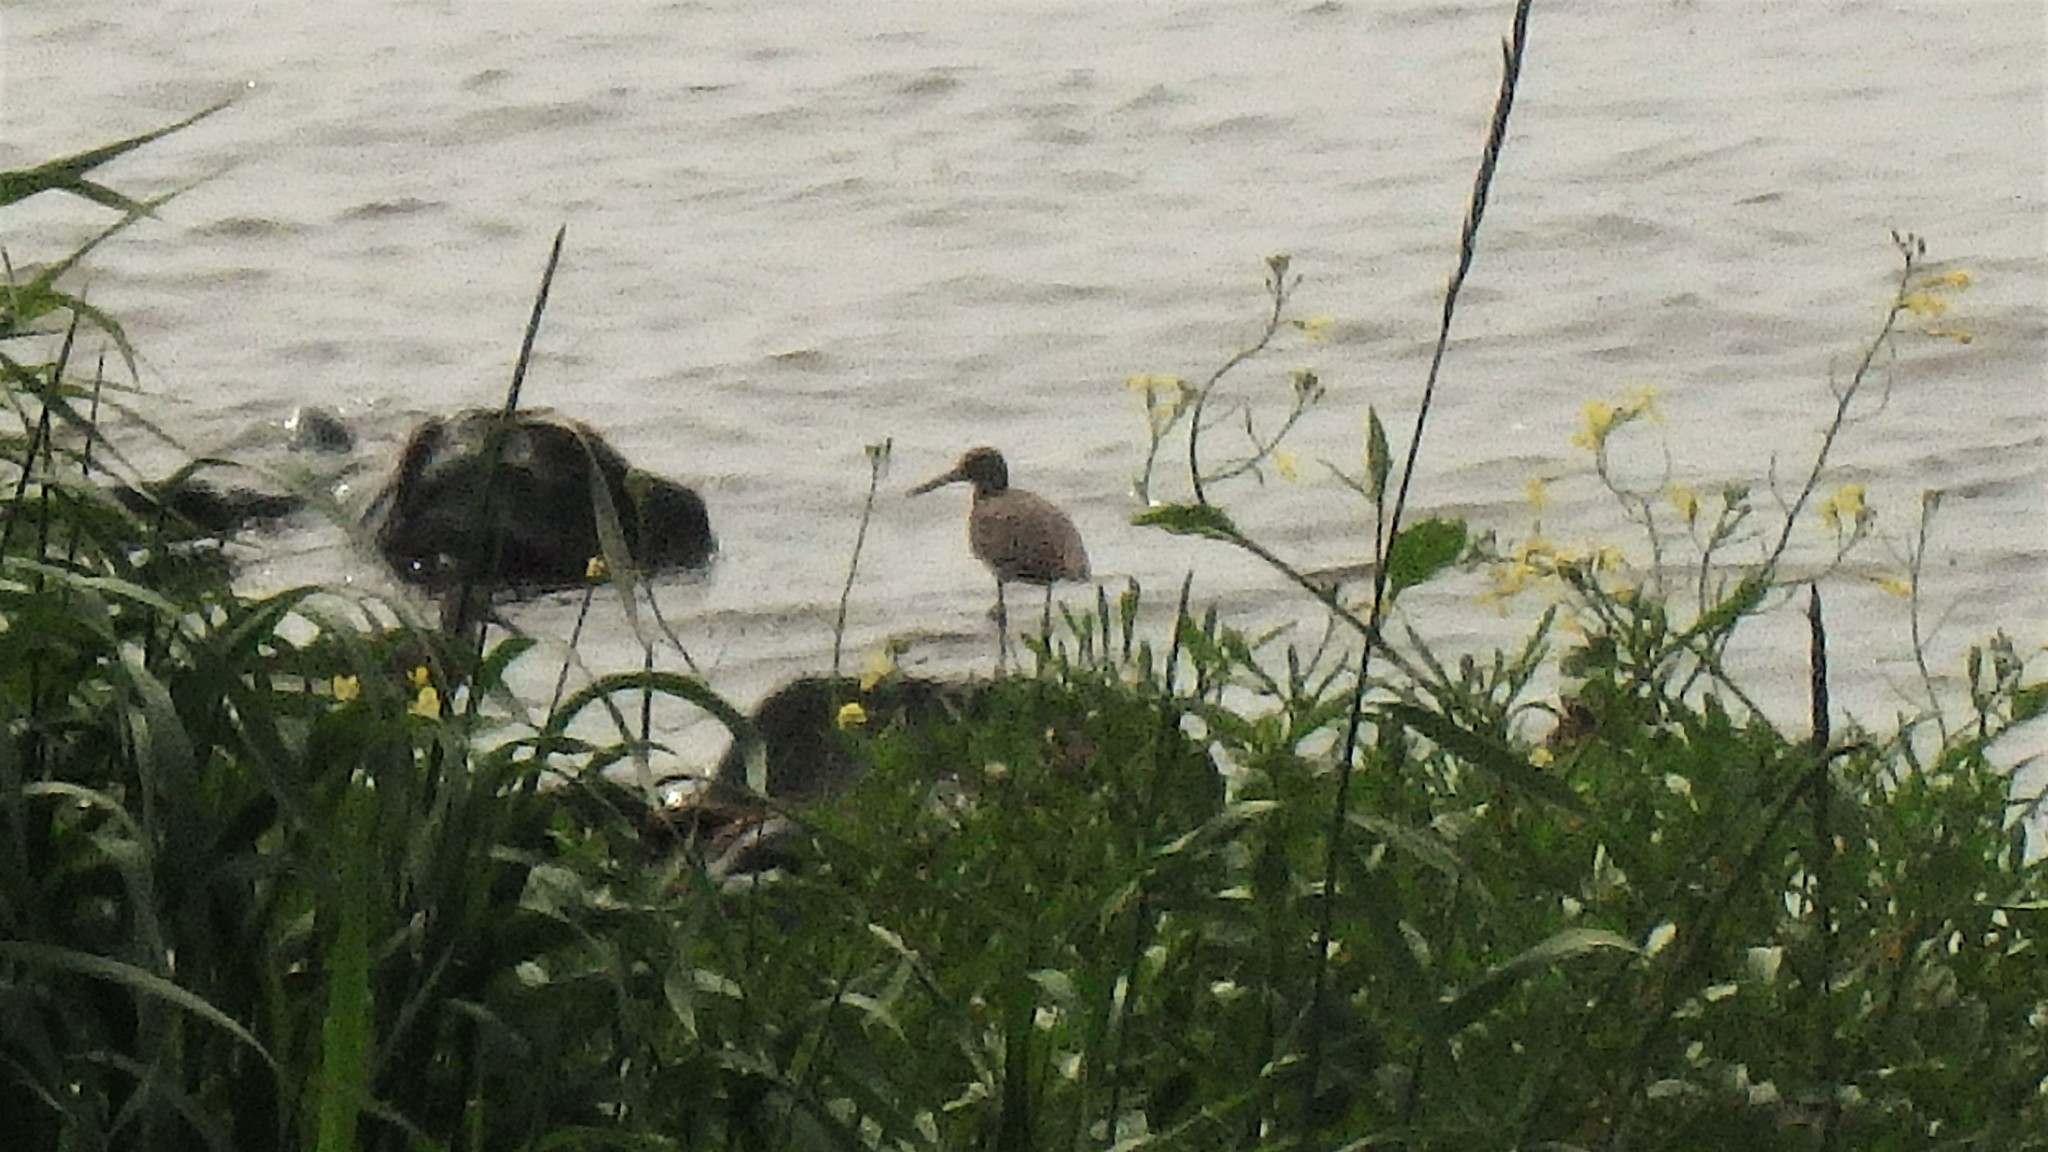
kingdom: Animalia
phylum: Chordata
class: Aves
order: Charadriiformes
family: Scolopacidae
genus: Tringa
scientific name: Tringa melanoleuca
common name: Greater yellowlegs
